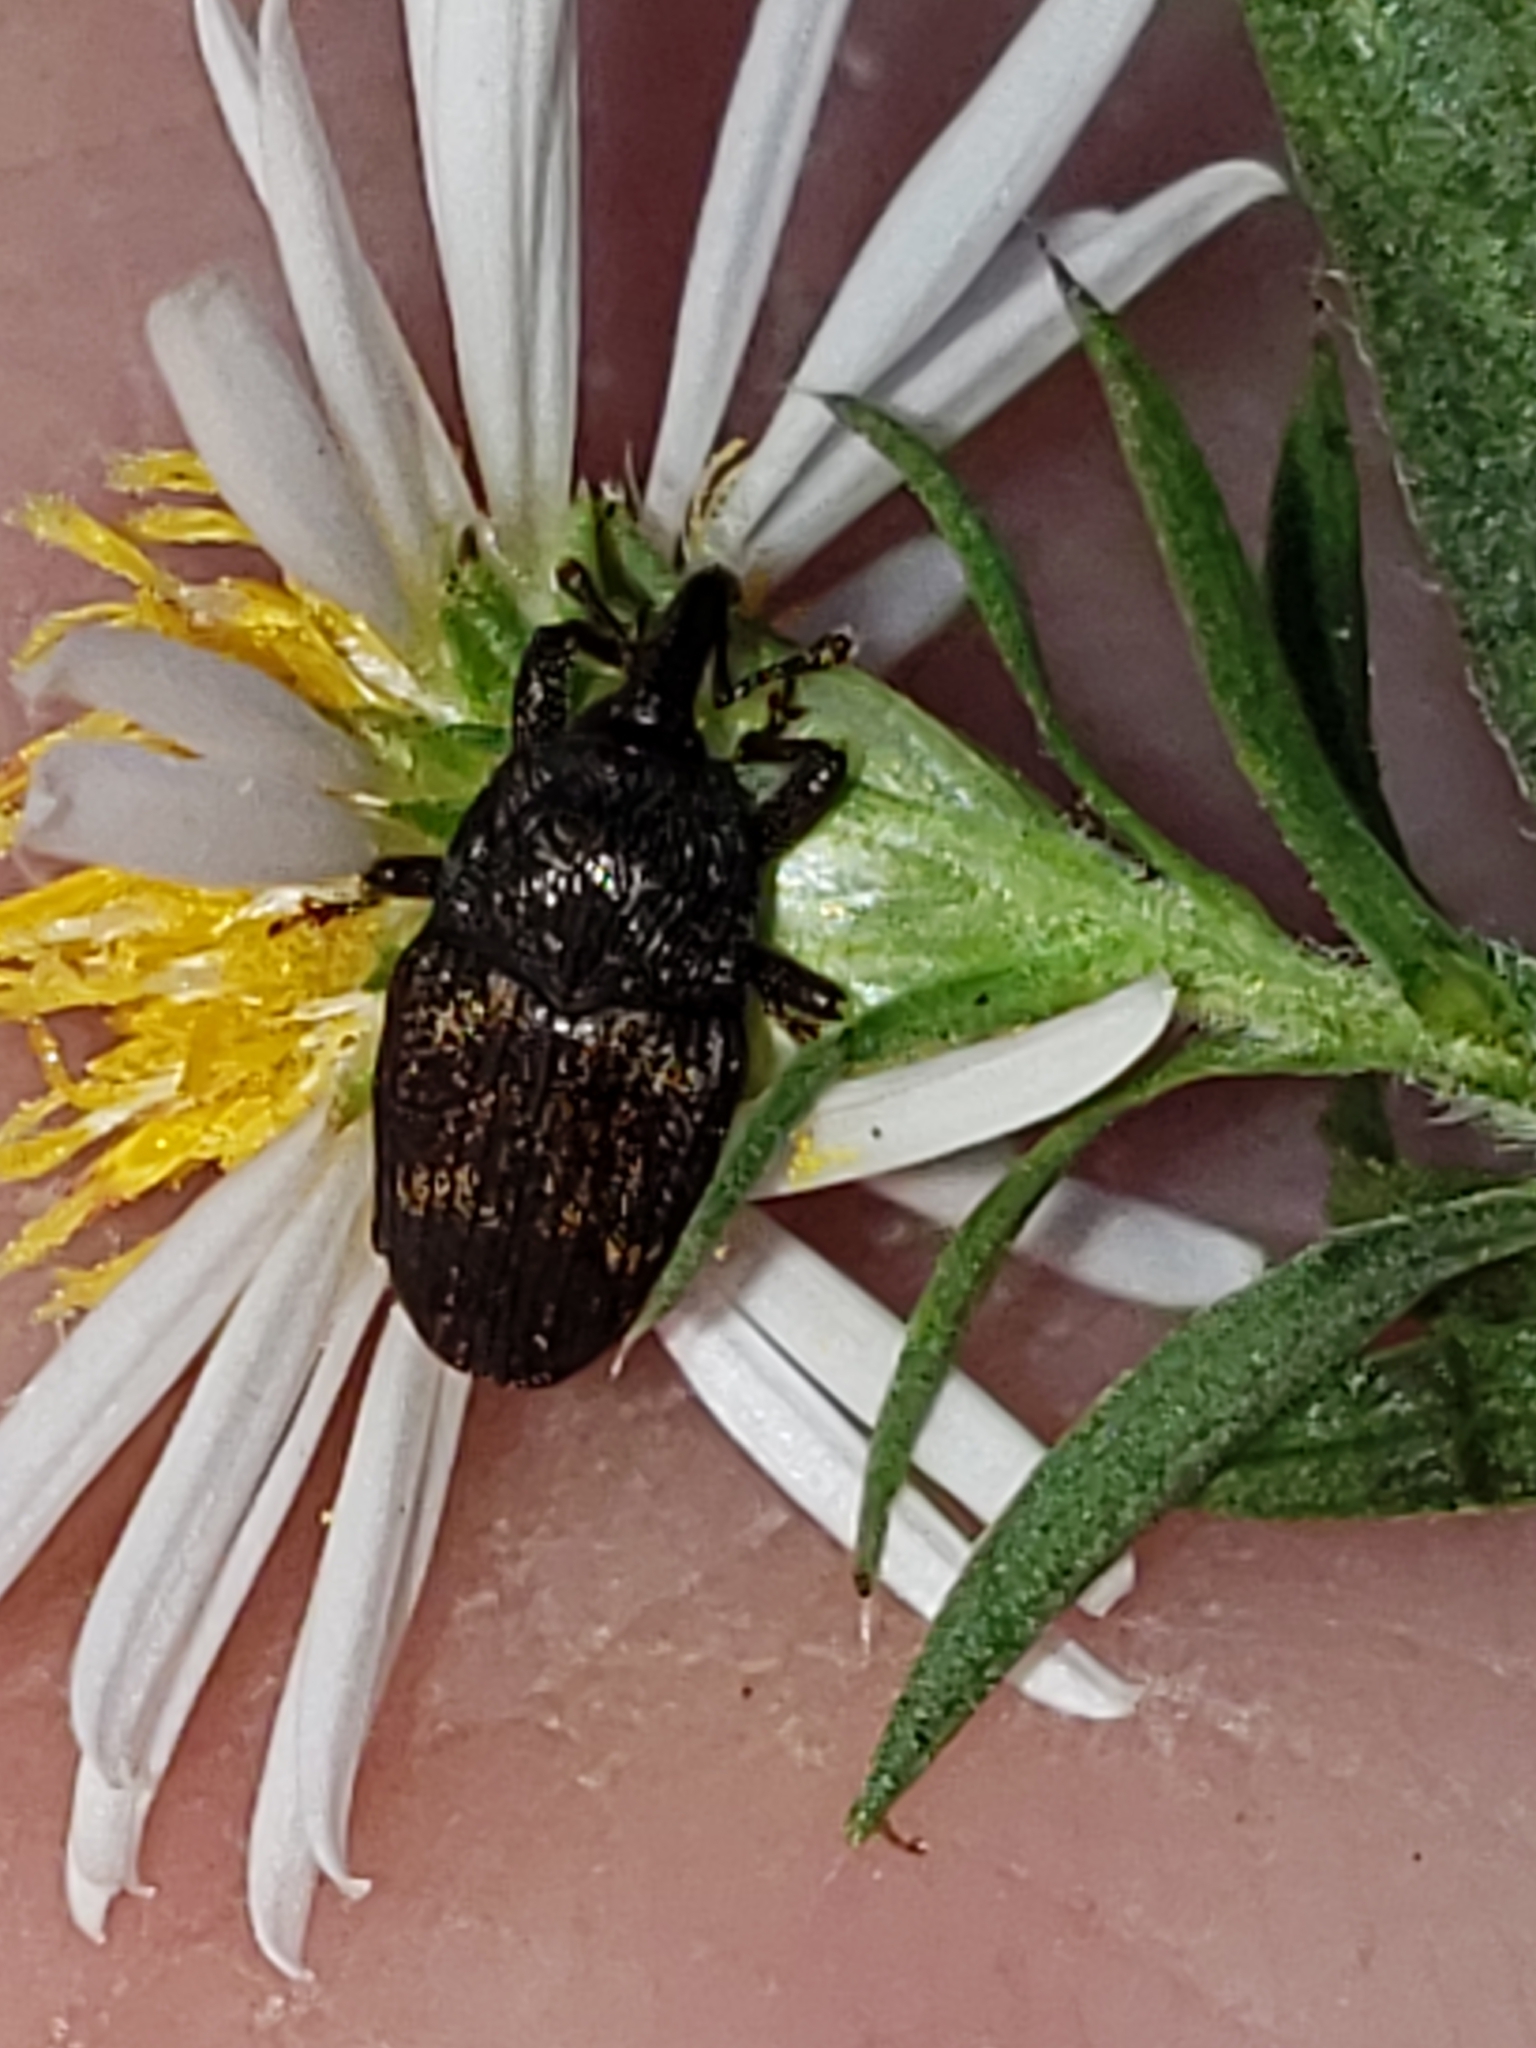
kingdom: Animalia
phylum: Arthropoda
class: Insecta
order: Coleoptera
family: Curculionidae
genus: Glyptobaris
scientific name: Glyptobaris lecontei
